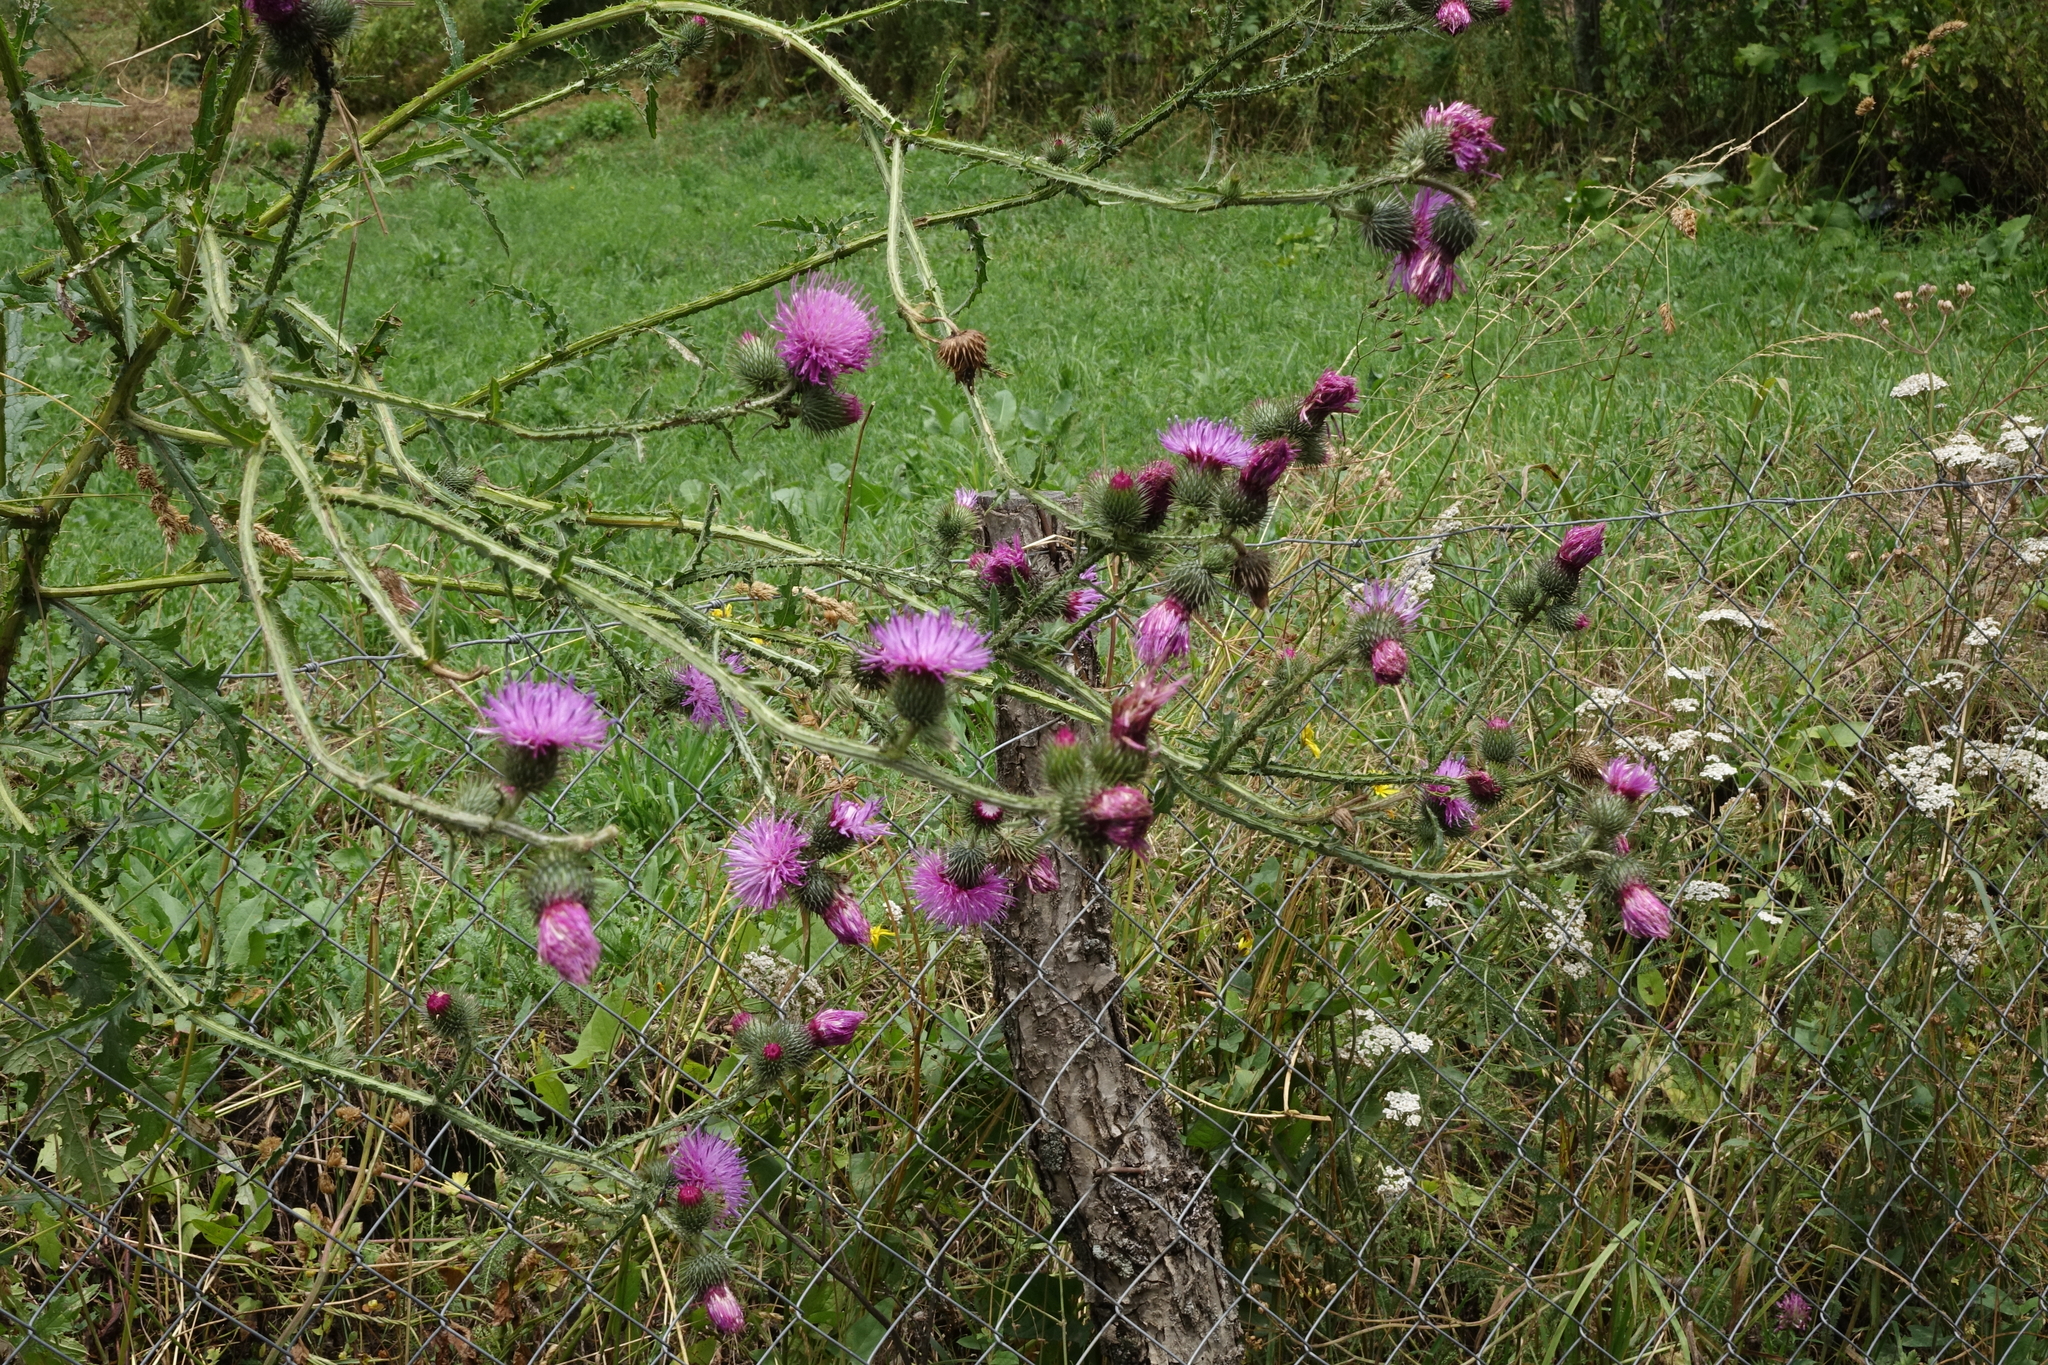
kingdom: Plantae
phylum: Tracheophyta
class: Magnoliopsida
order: Asterales
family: Asteraceae
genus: Carduus
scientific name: Carduus crispus
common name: Welted thistle
